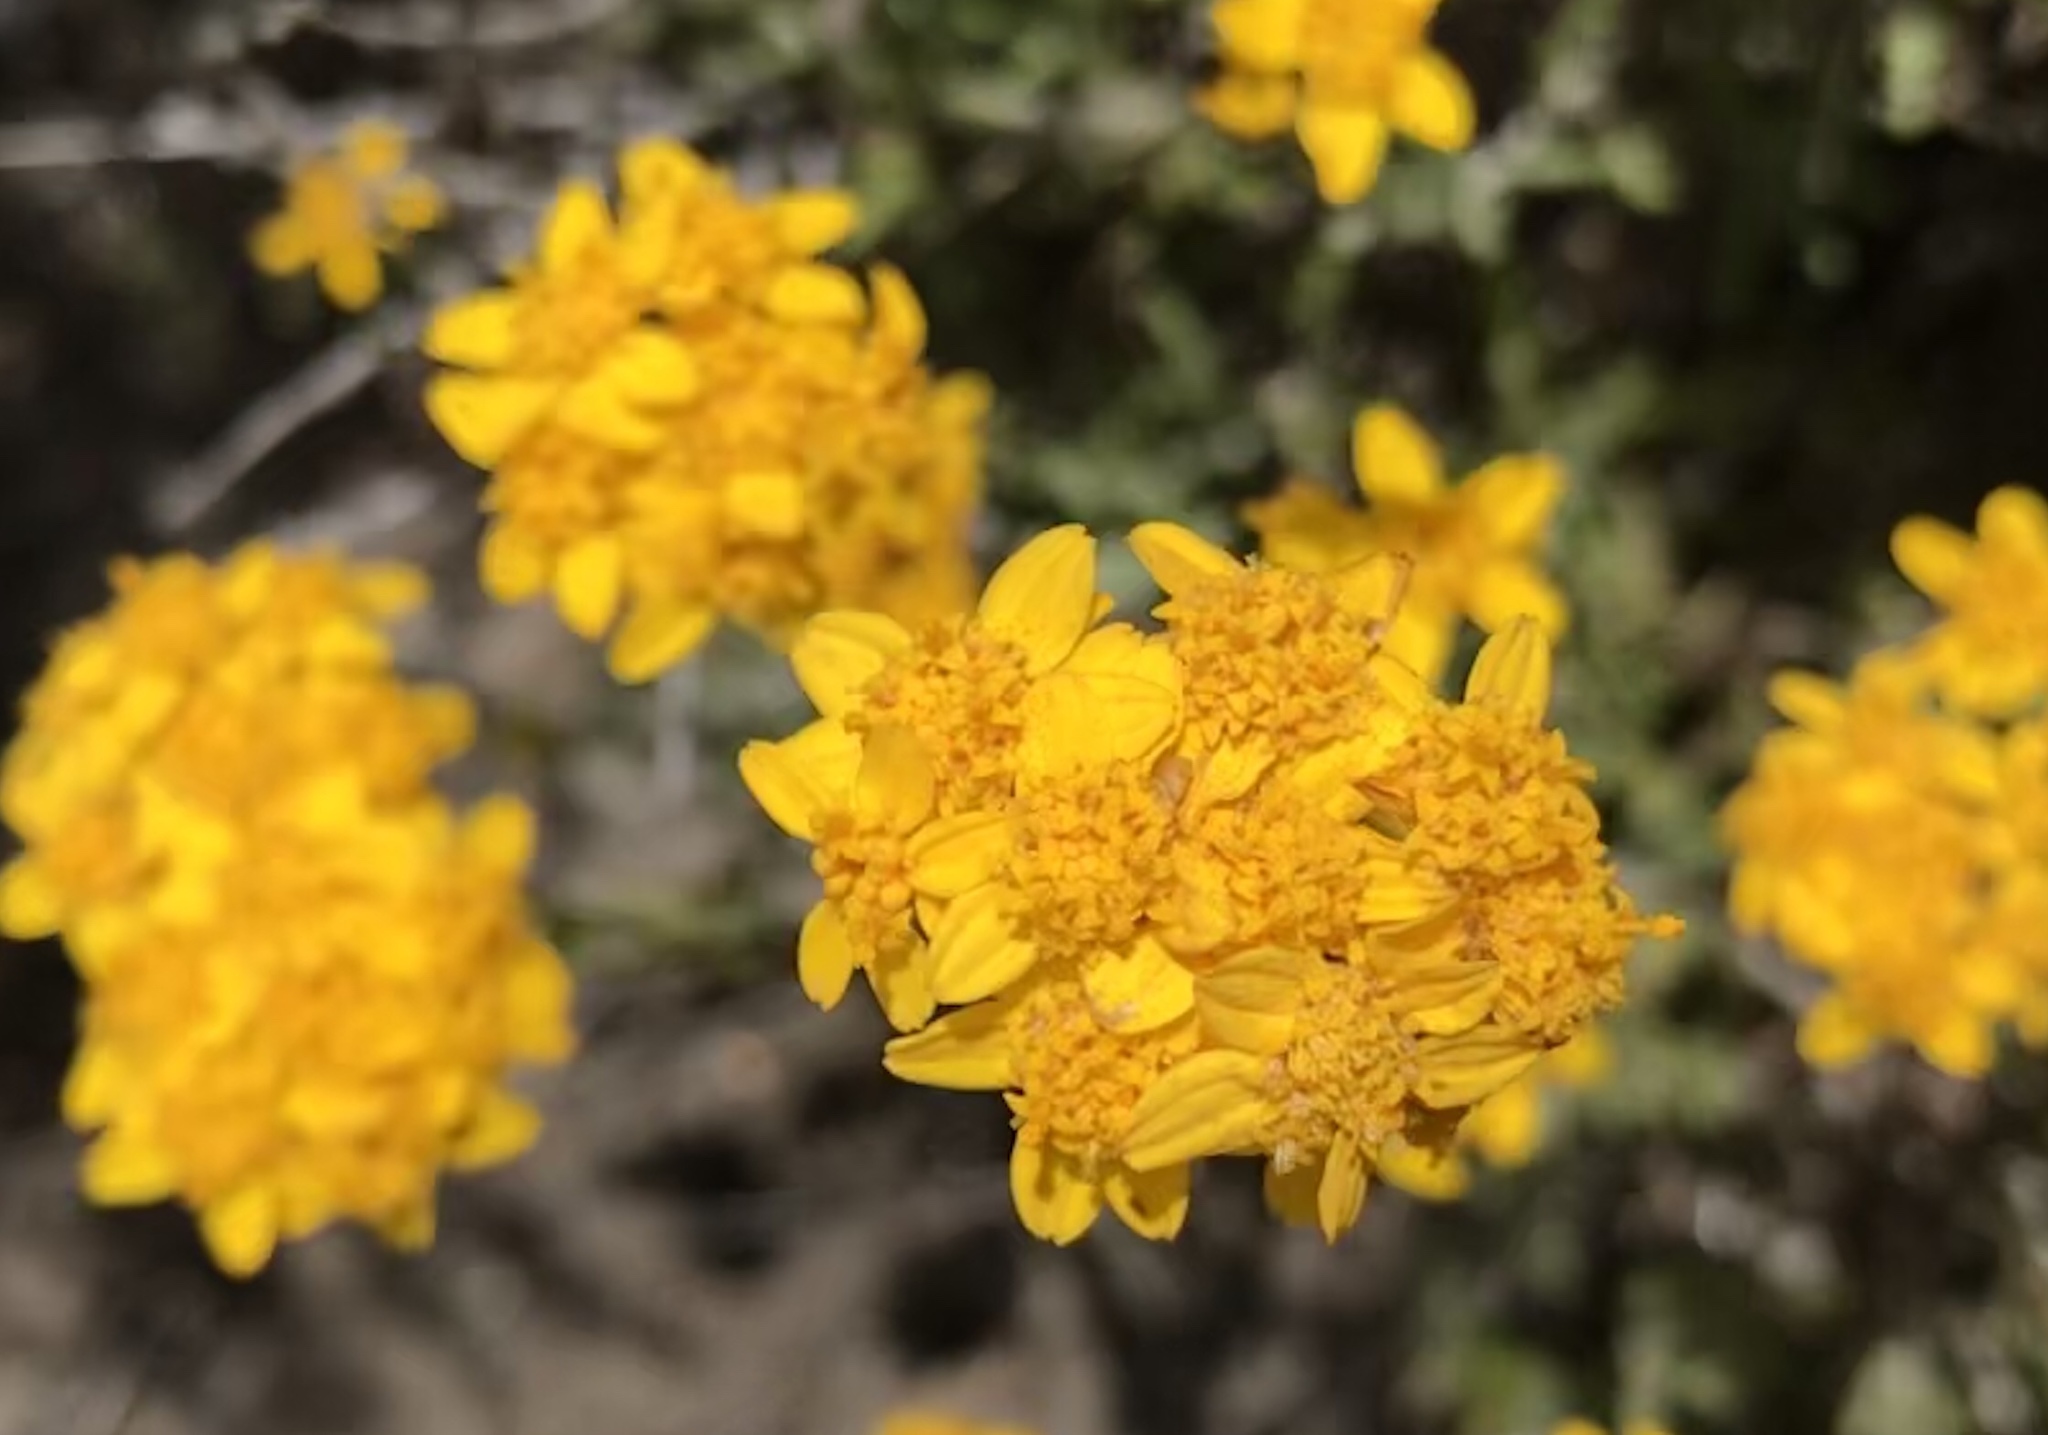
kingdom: Plantae
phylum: Tracheophyta
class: Magnoliopsida
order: Asterales
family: Asteraceae
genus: Eriophyllum
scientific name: Eriophyllum confertiflorum
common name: Golden-yarrow
